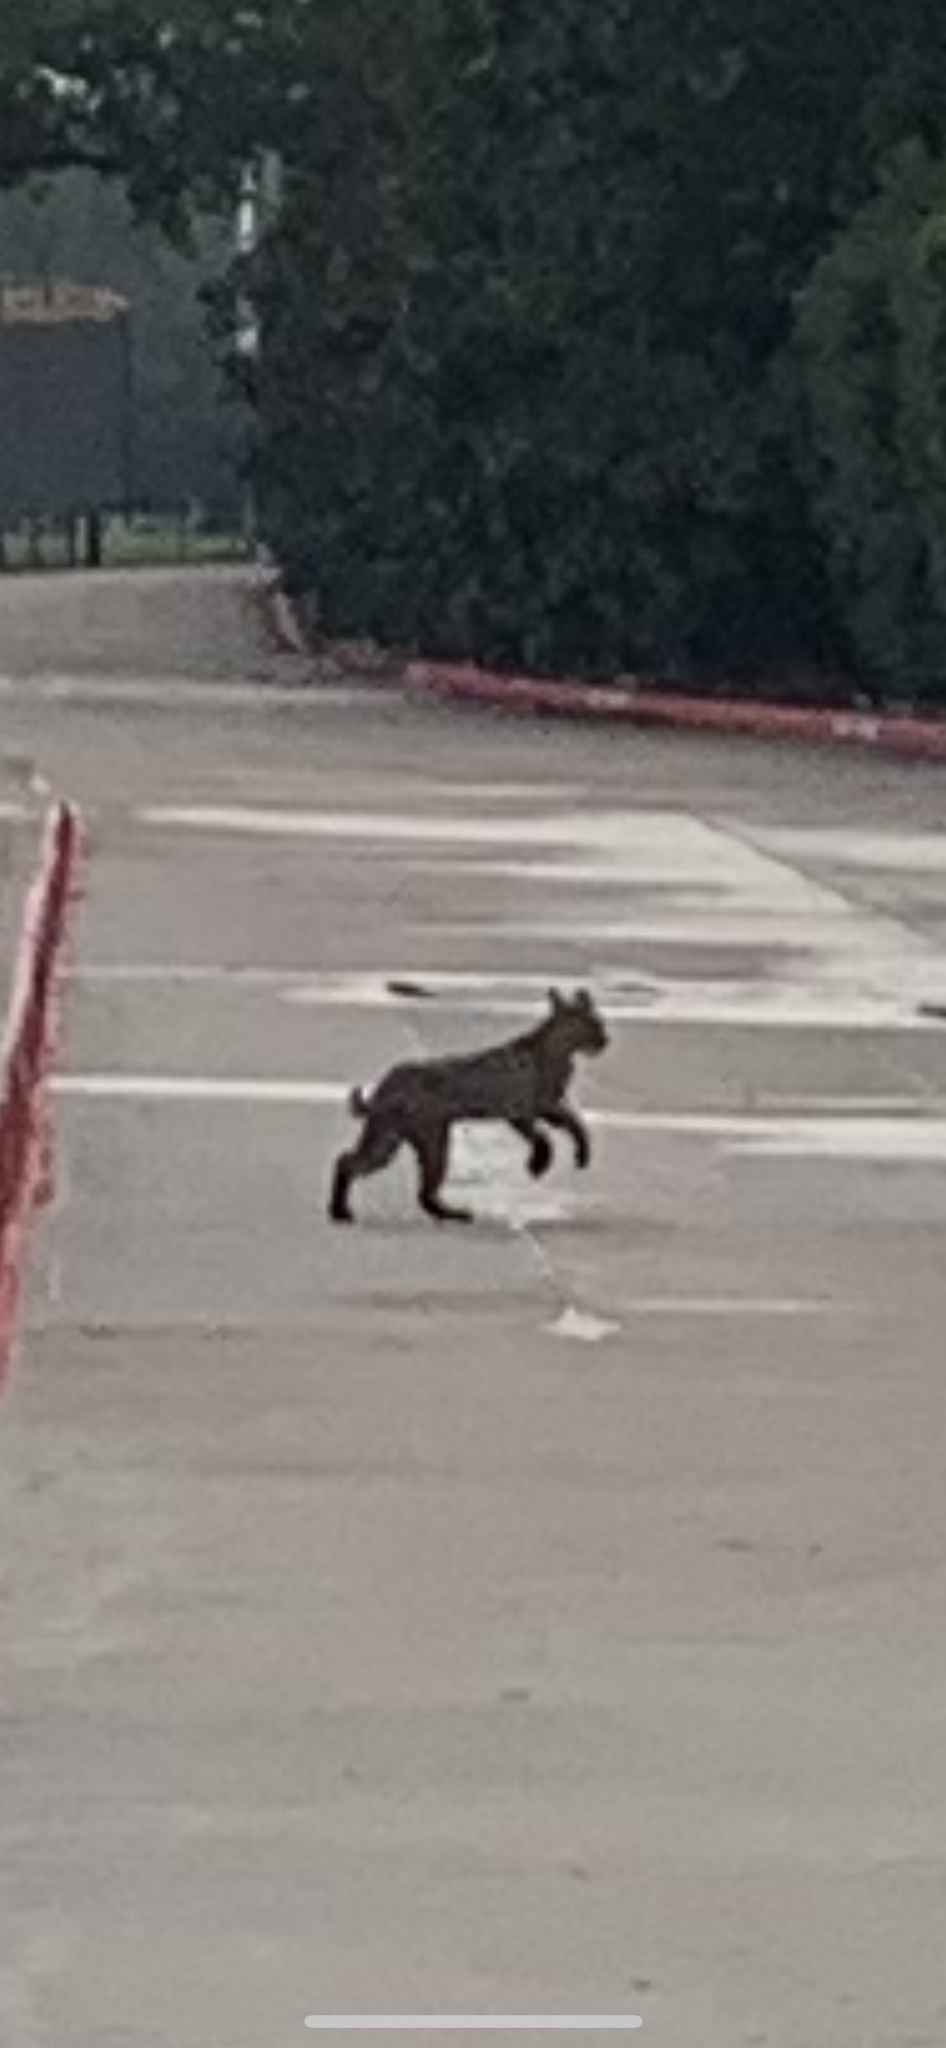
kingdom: Animalia
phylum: Chordata
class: Mammalia
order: Carnivora
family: Felidae
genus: Lynx
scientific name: Lynx rufus
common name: Bobcat
